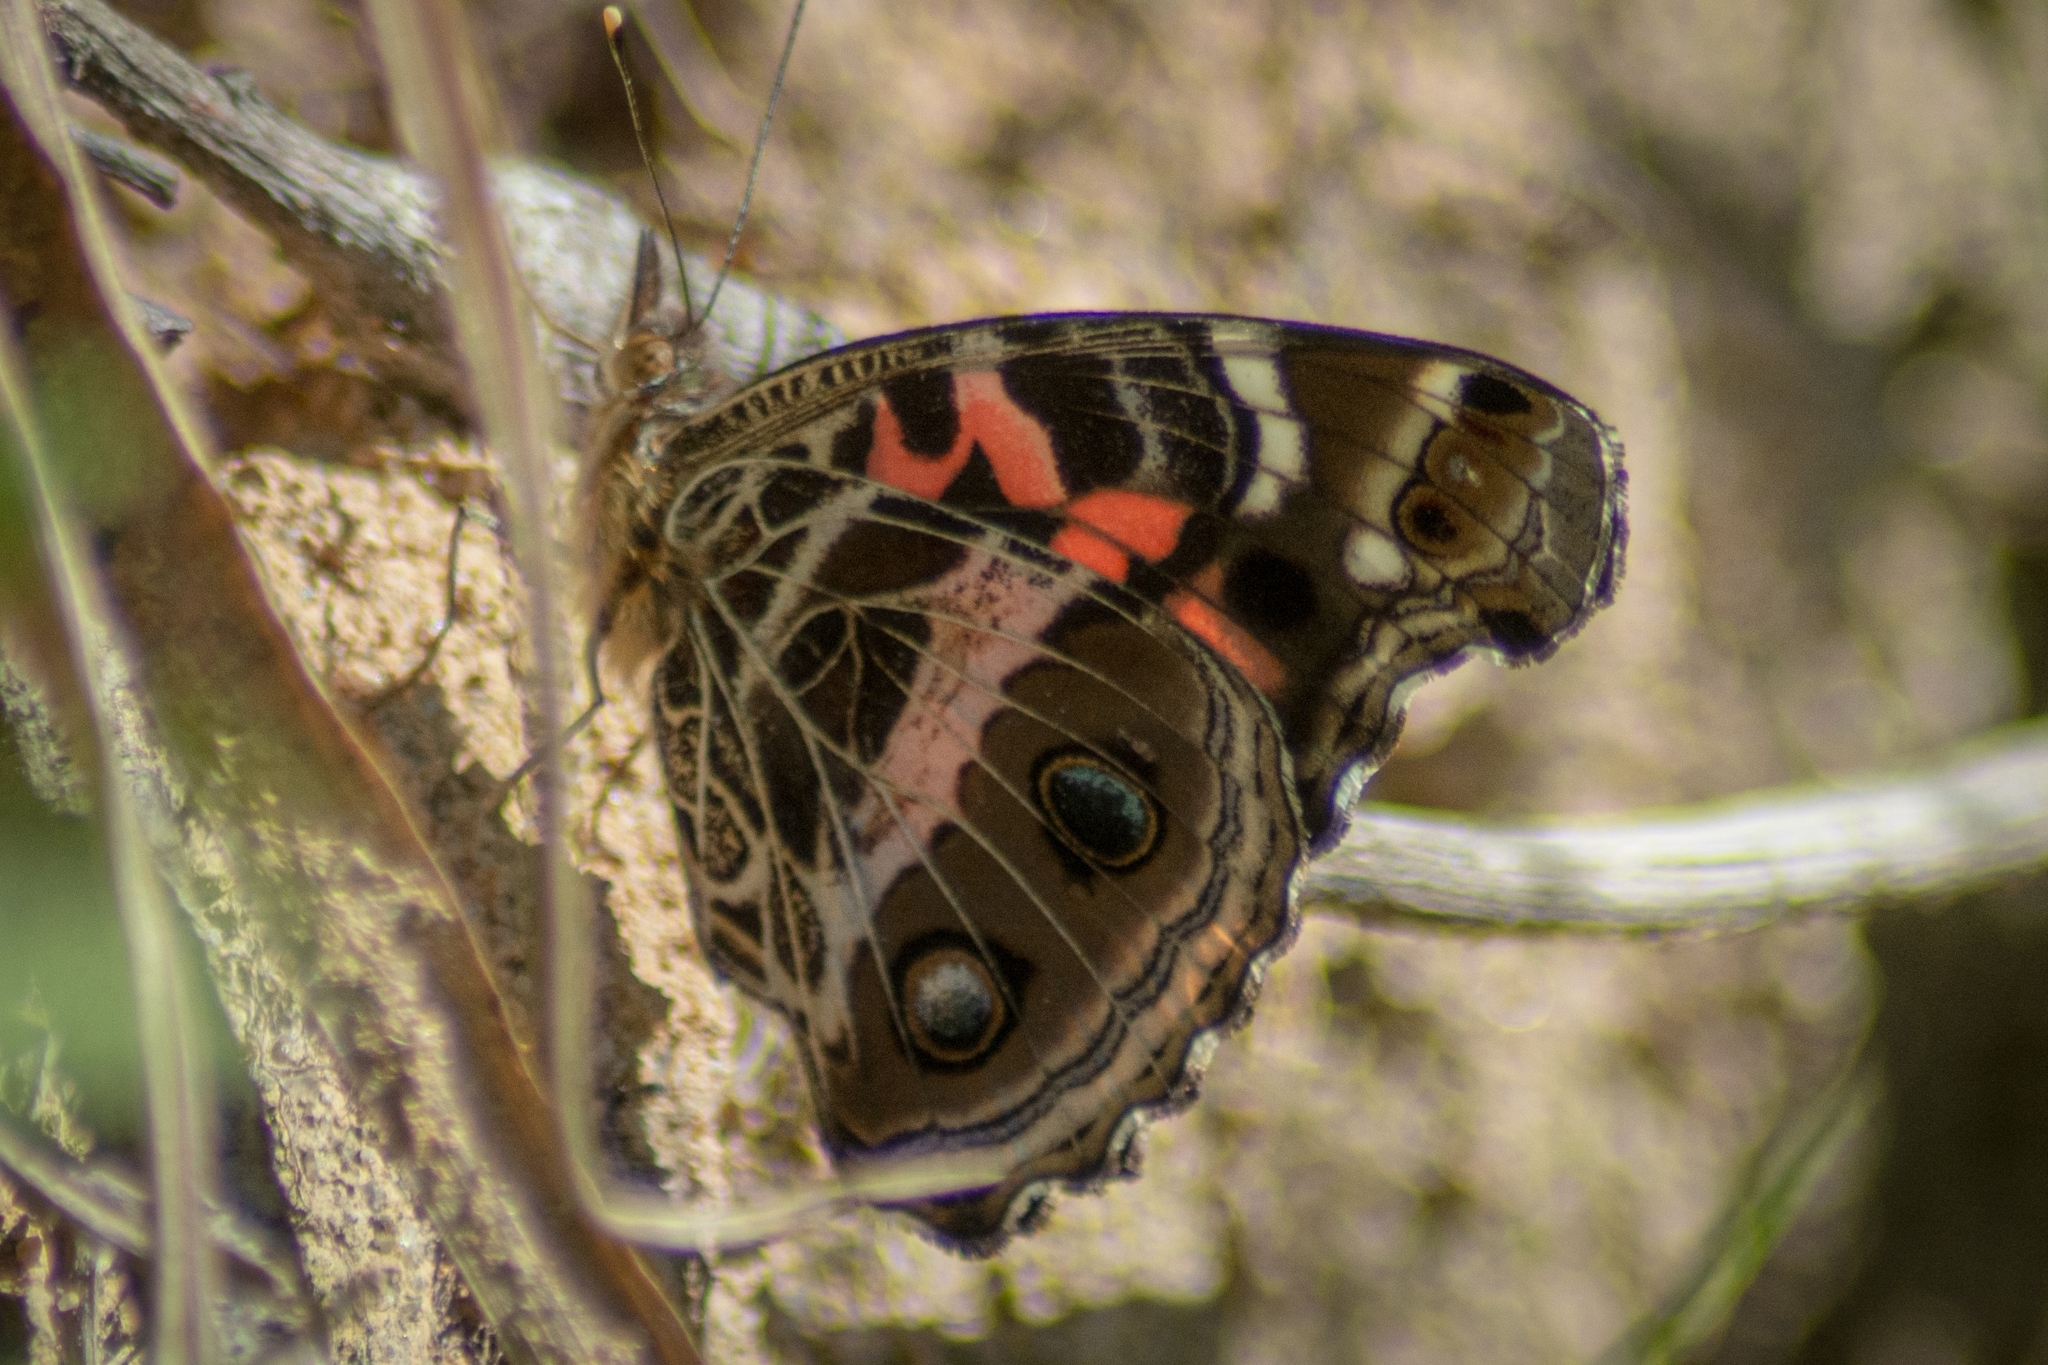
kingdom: Animalia
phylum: Arthropoda
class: Insecta
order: Lepidoptera
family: Nymphalidae
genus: Vanessa
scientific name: Vanessa myrinna
